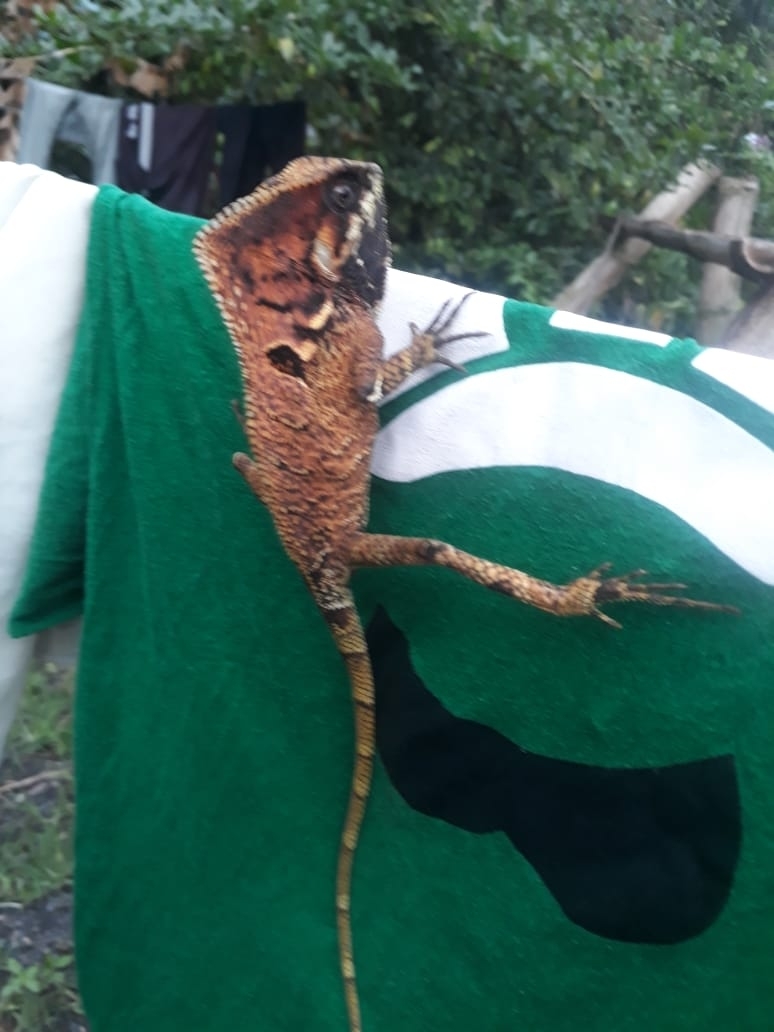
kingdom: Animalia
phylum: Chordata
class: Squamata
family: Corytophanidae
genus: Corytophanes
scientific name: Corytophanes cristatus
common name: Smooth helmeted iguana
